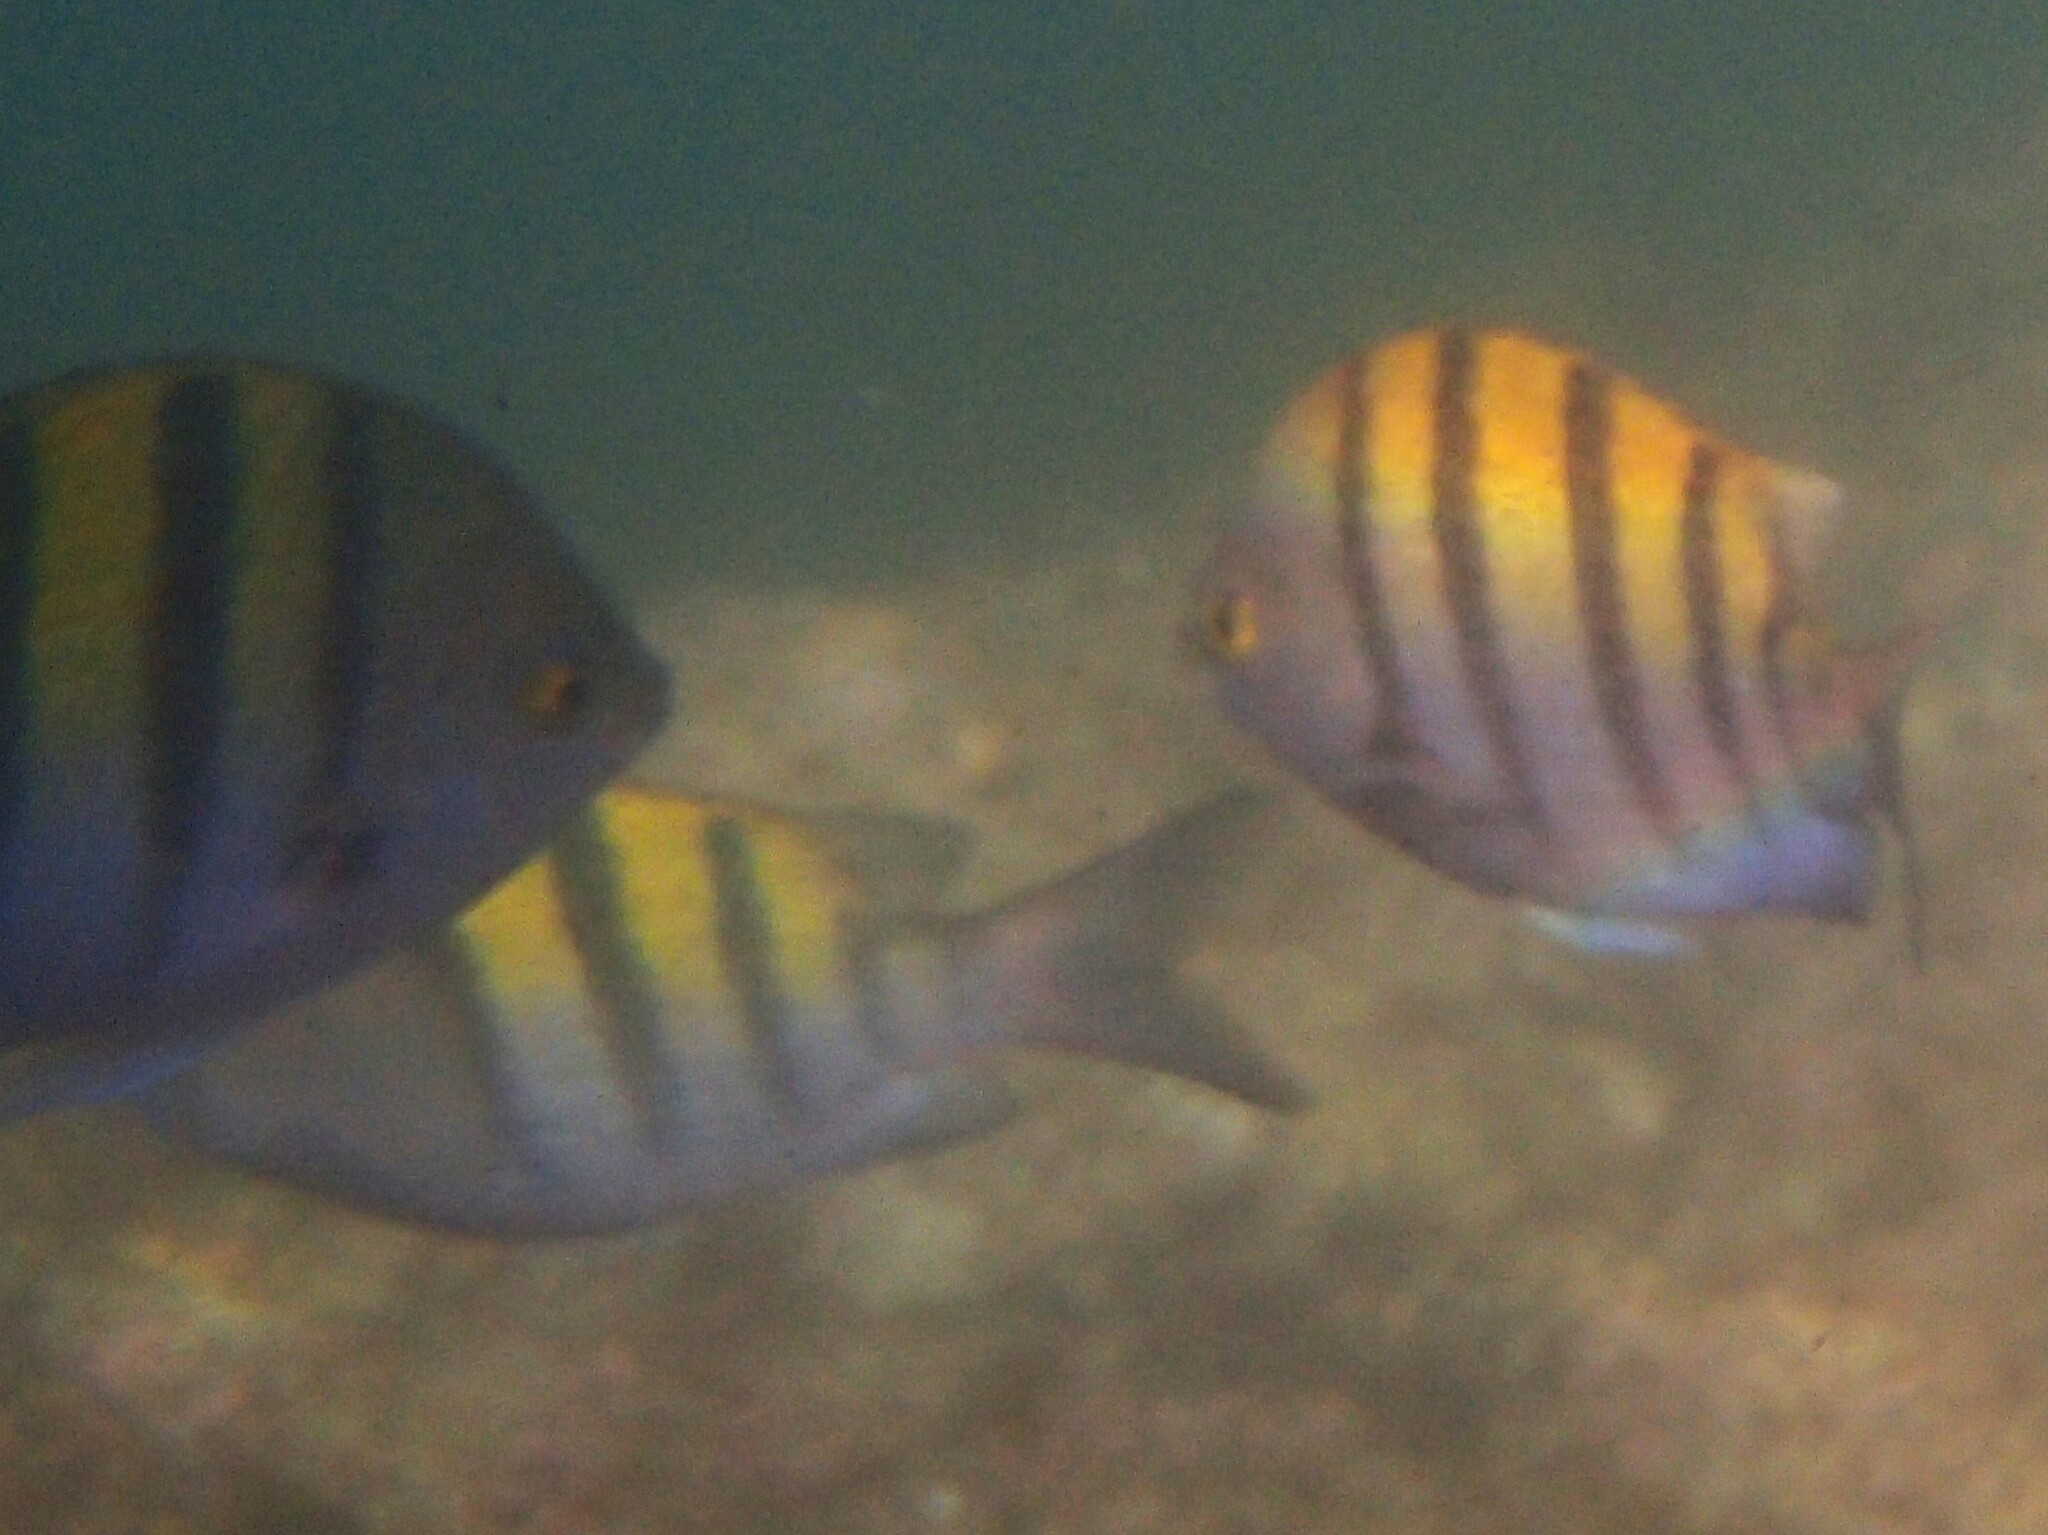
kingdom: Animalia
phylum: Chordata
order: Perciformes
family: Pomacentridae
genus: Abudefduf
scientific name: Abudefduf troschelii
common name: Panamic sergeant major
